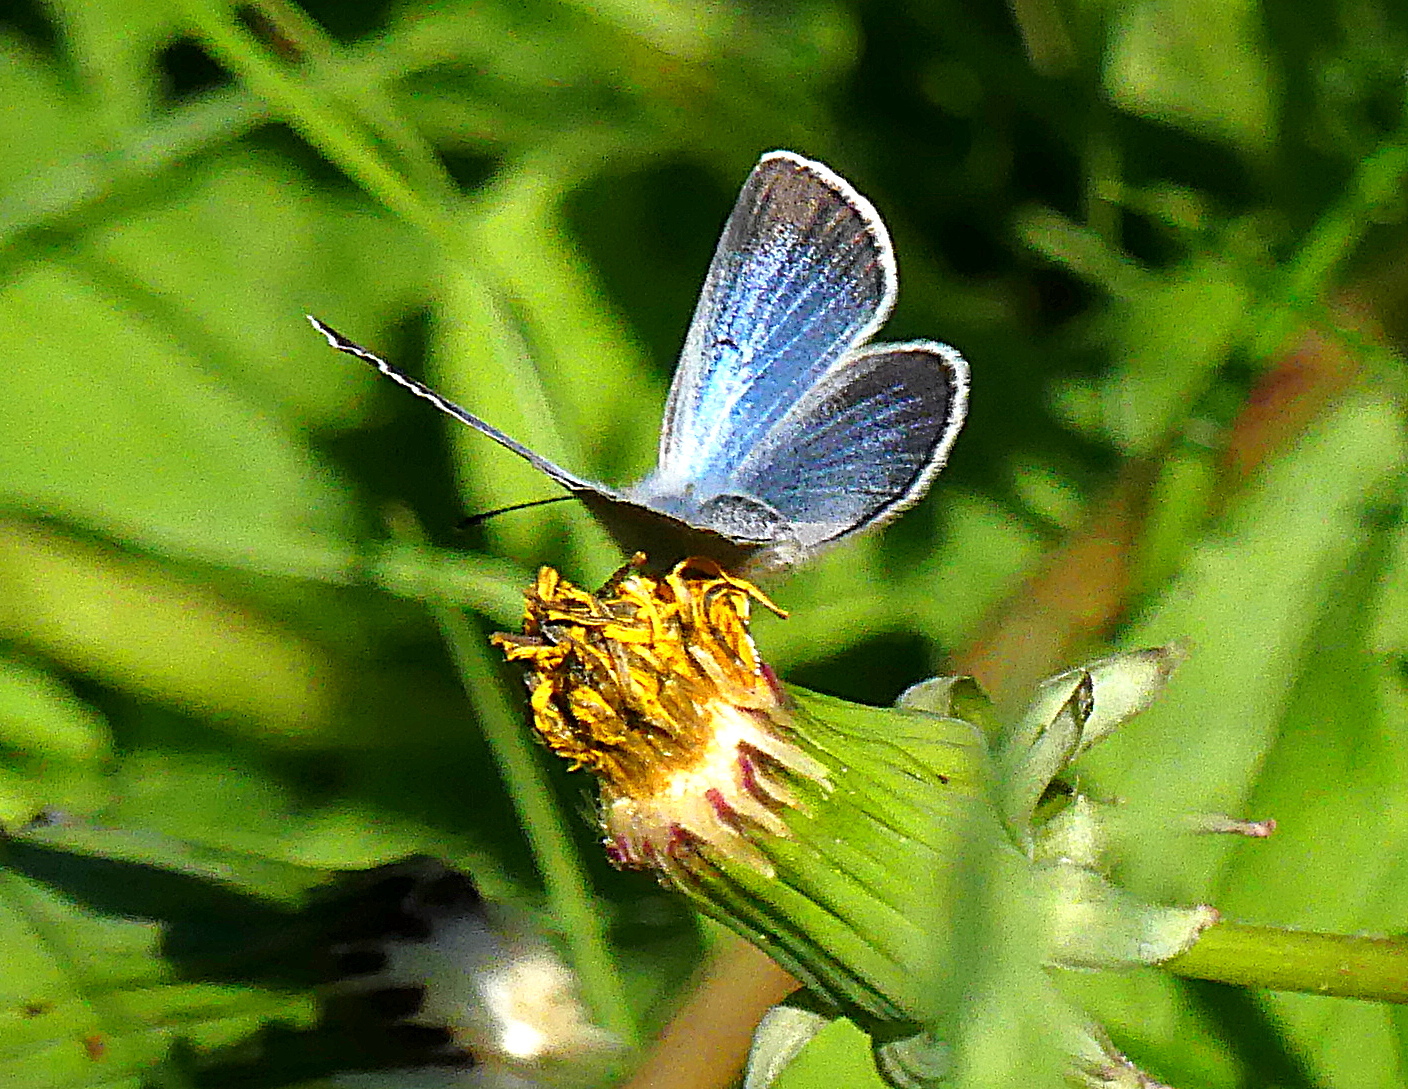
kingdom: Animalia
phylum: Arthropoda
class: Insecta
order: Lepidoptera
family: Lycaenidae
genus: Glaucopsyche
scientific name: Glaucopsyche lygdamus
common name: Silvery blue
